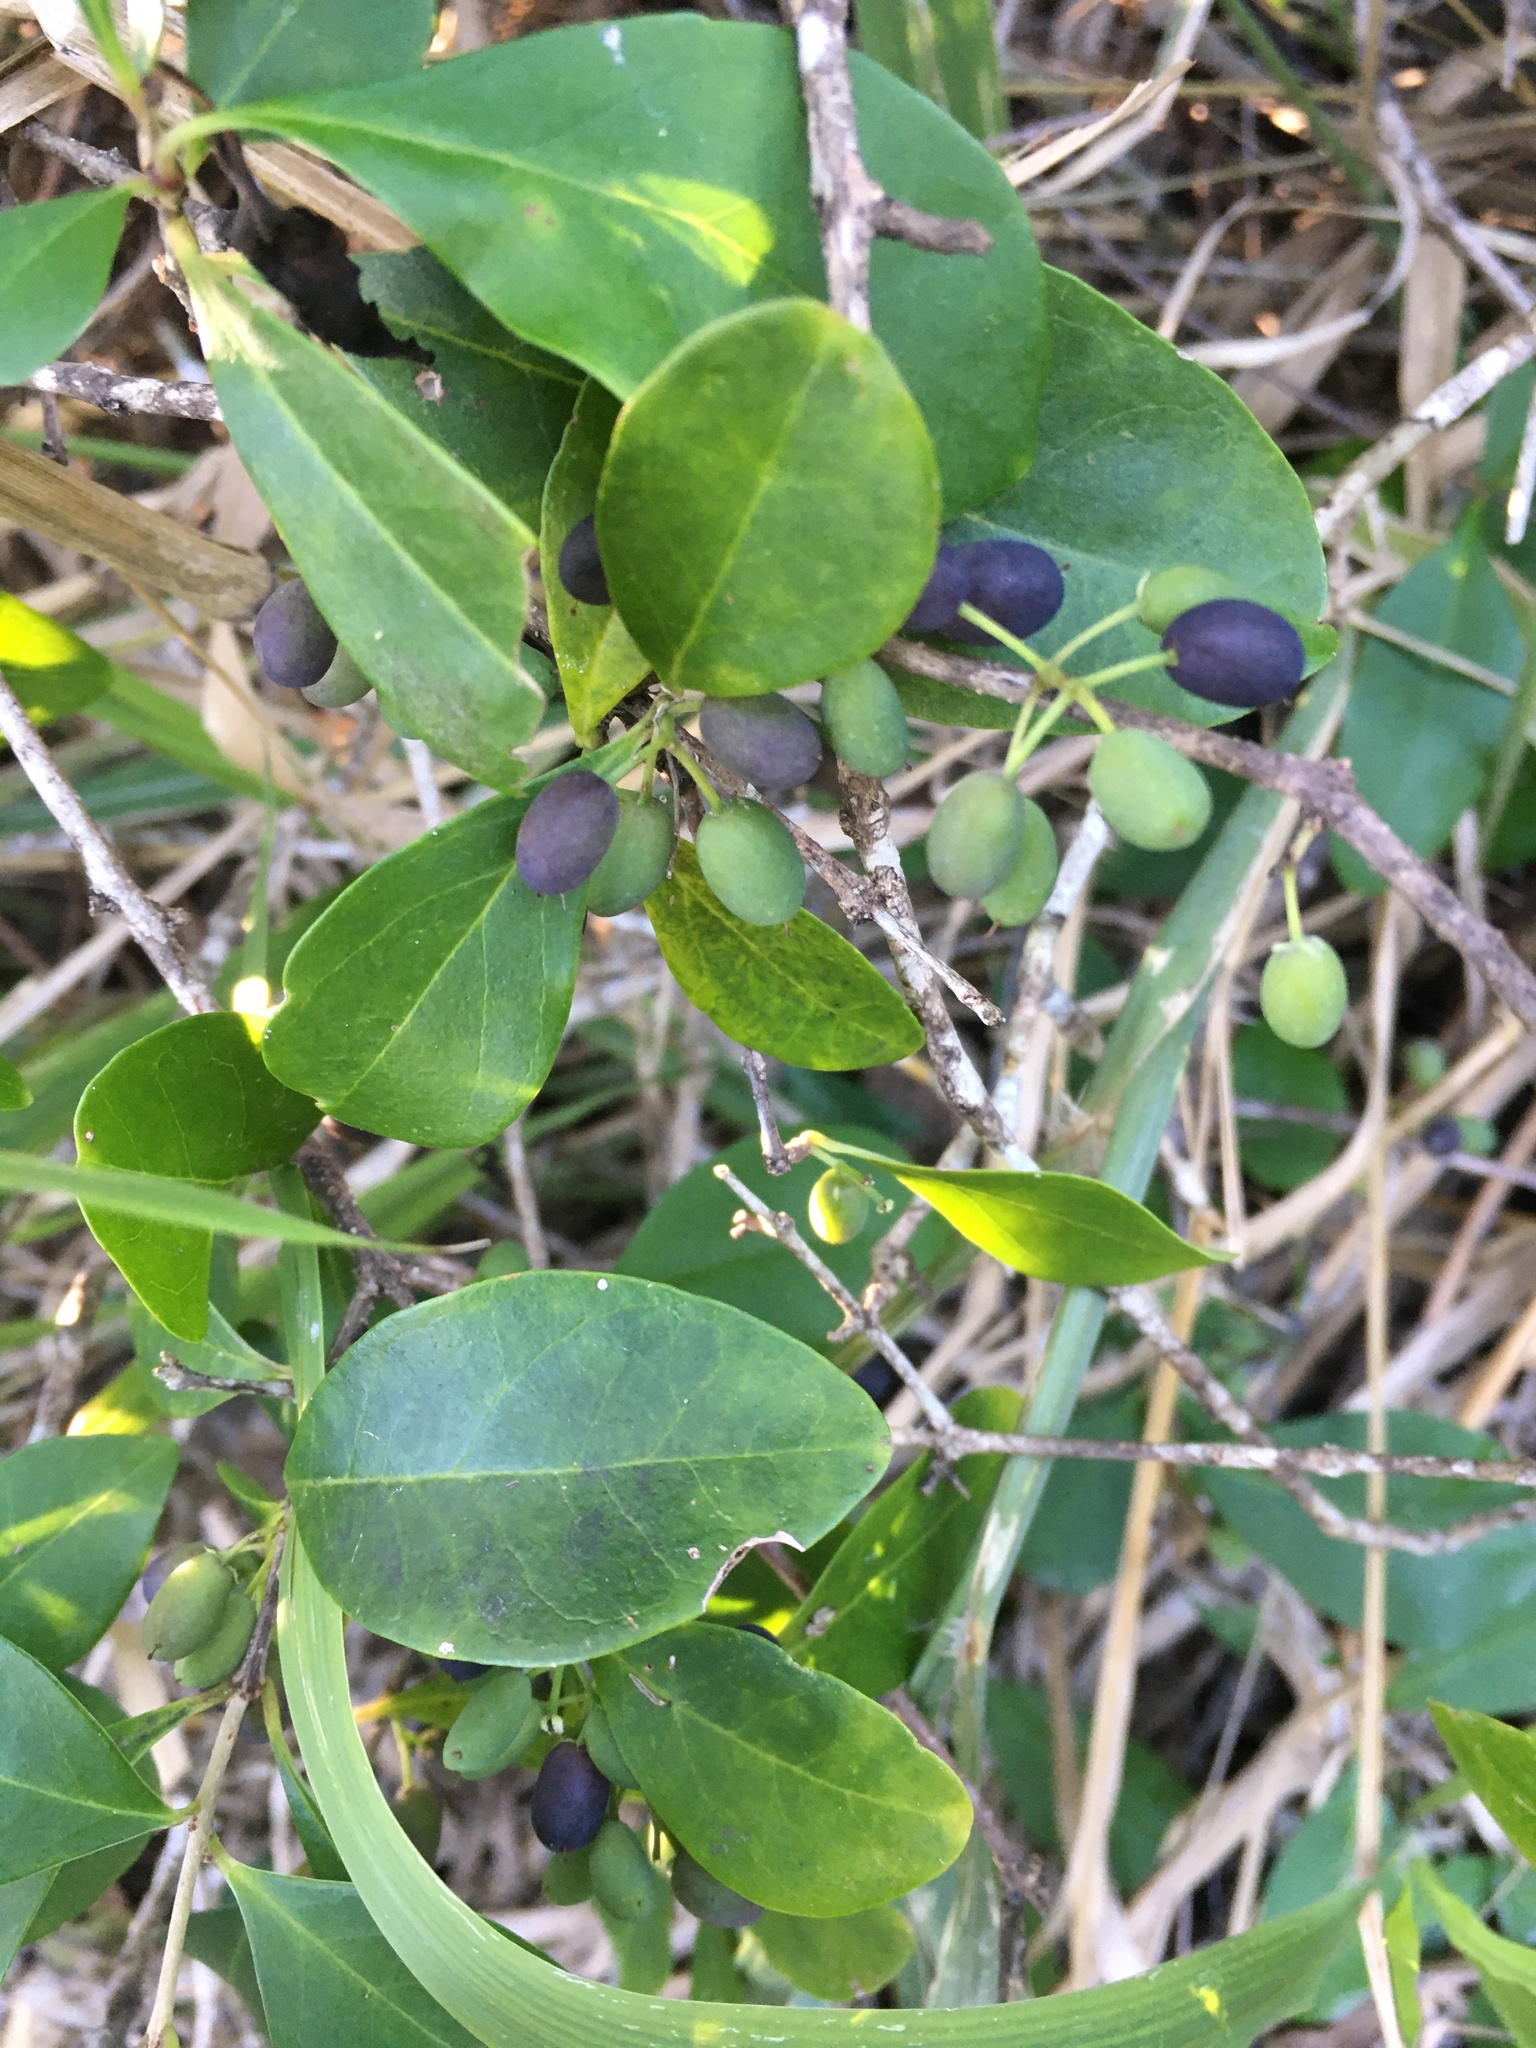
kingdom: Plantae
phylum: Tracheophyta
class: Magnoliopsida
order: Lamiales
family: Oleaceae
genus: Forestiera
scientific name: Forestiera segregata
